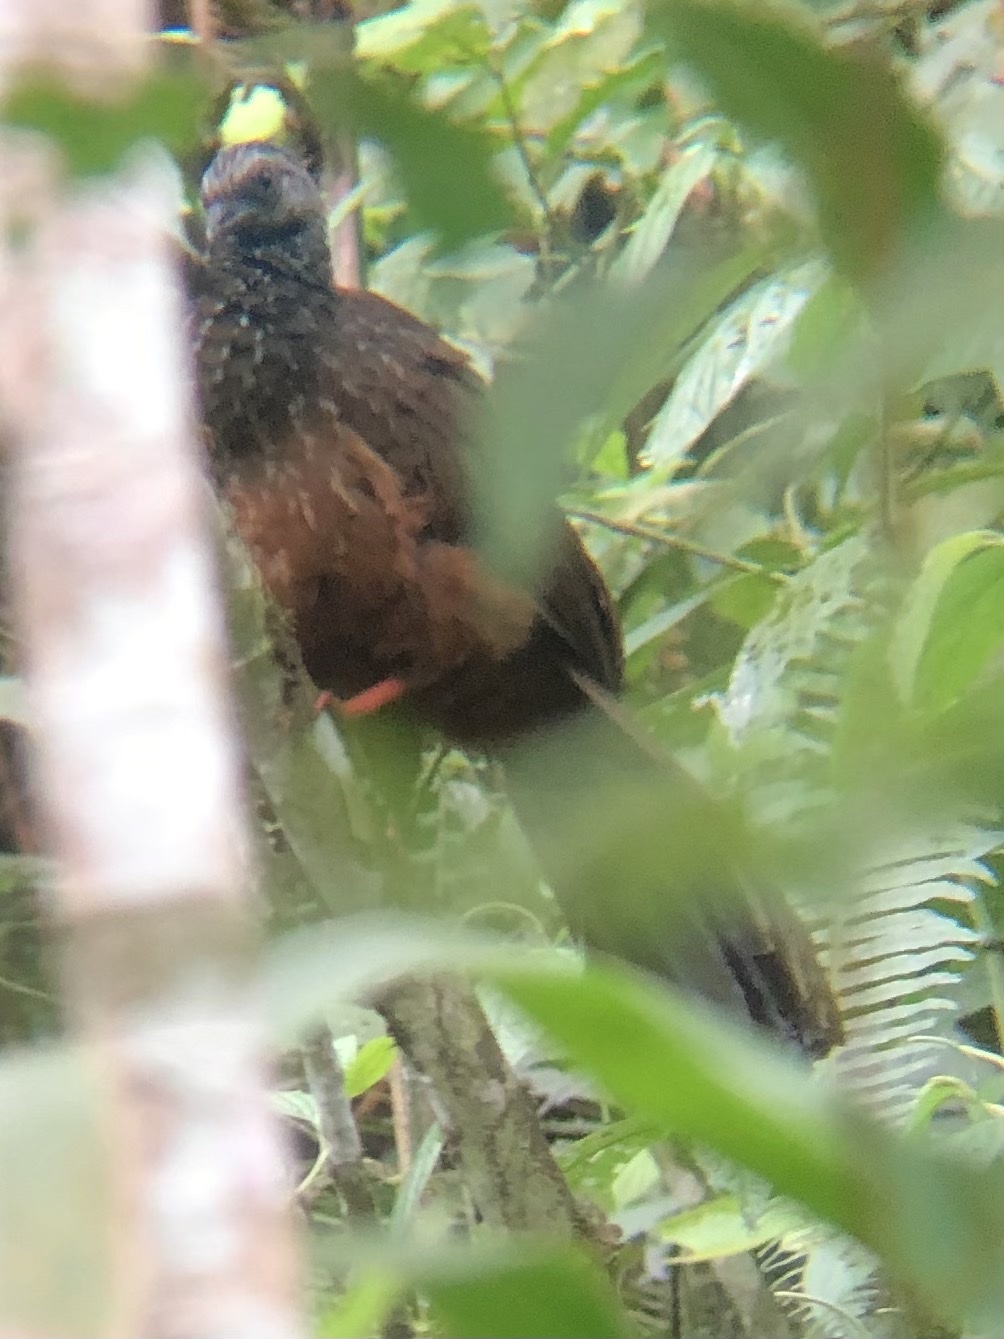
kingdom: Animalia
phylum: Chordata
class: Aves
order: Galliformes
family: Cracidae
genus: Penelope
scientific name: Penelope montagnii
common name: Andean guan
